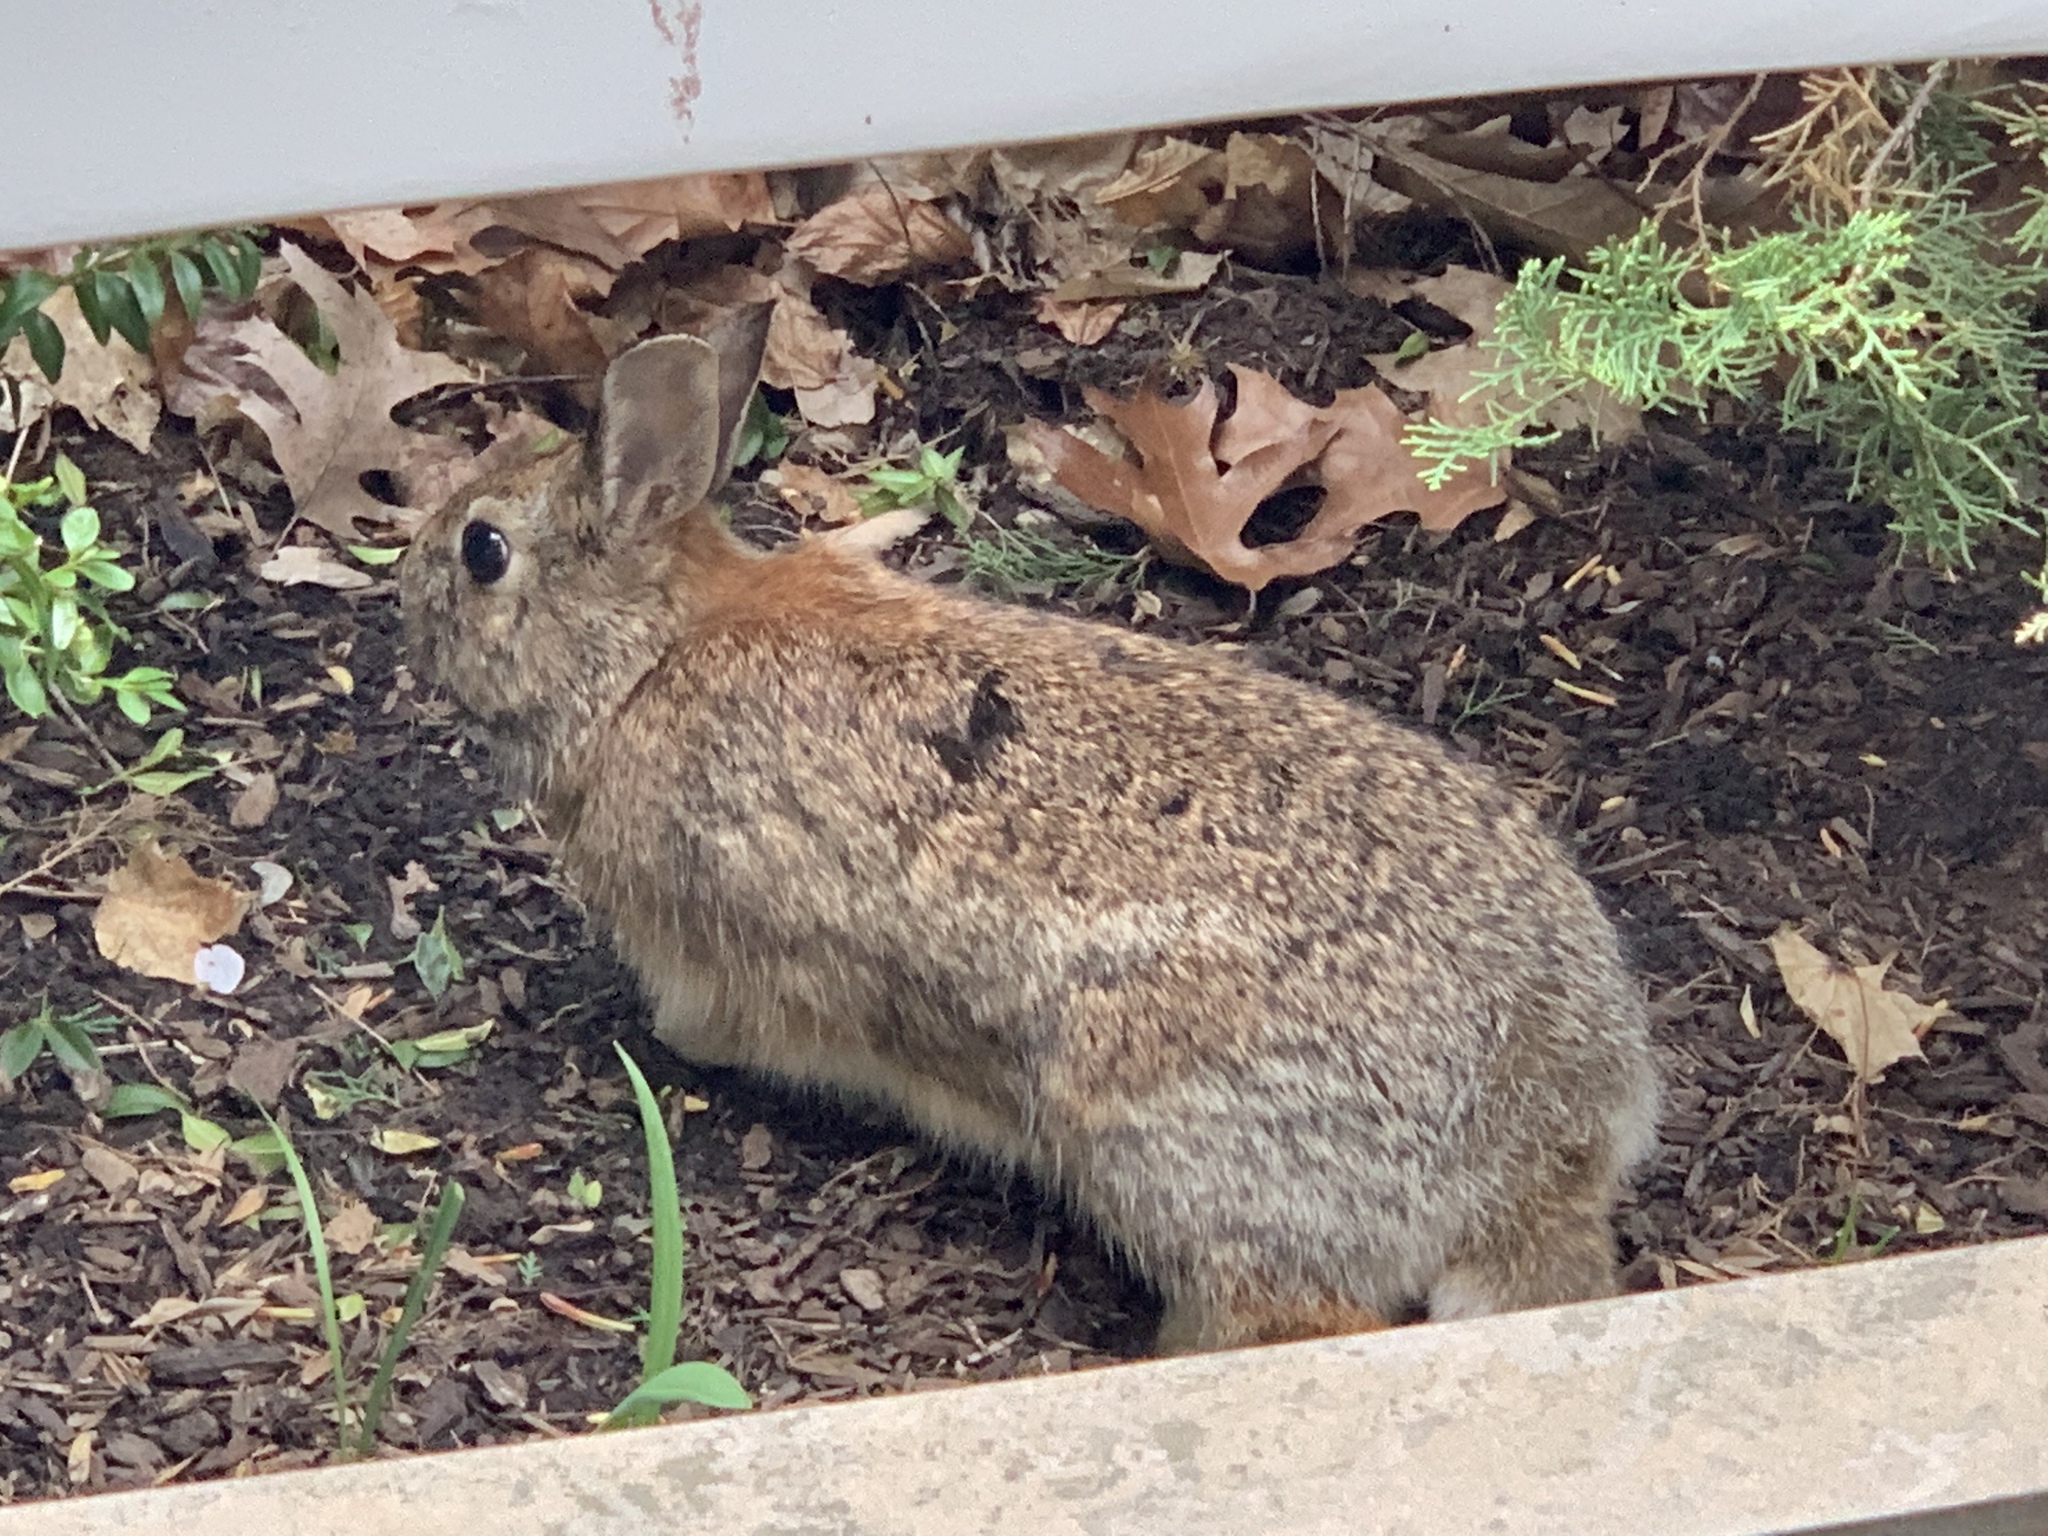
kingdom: Animalia
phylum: Chordata
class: Mammalia
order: Lagomorpha
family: Leporidae
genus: Sylvilagus
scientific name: Sylvilagus floridanus
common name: Eastern cottontail
